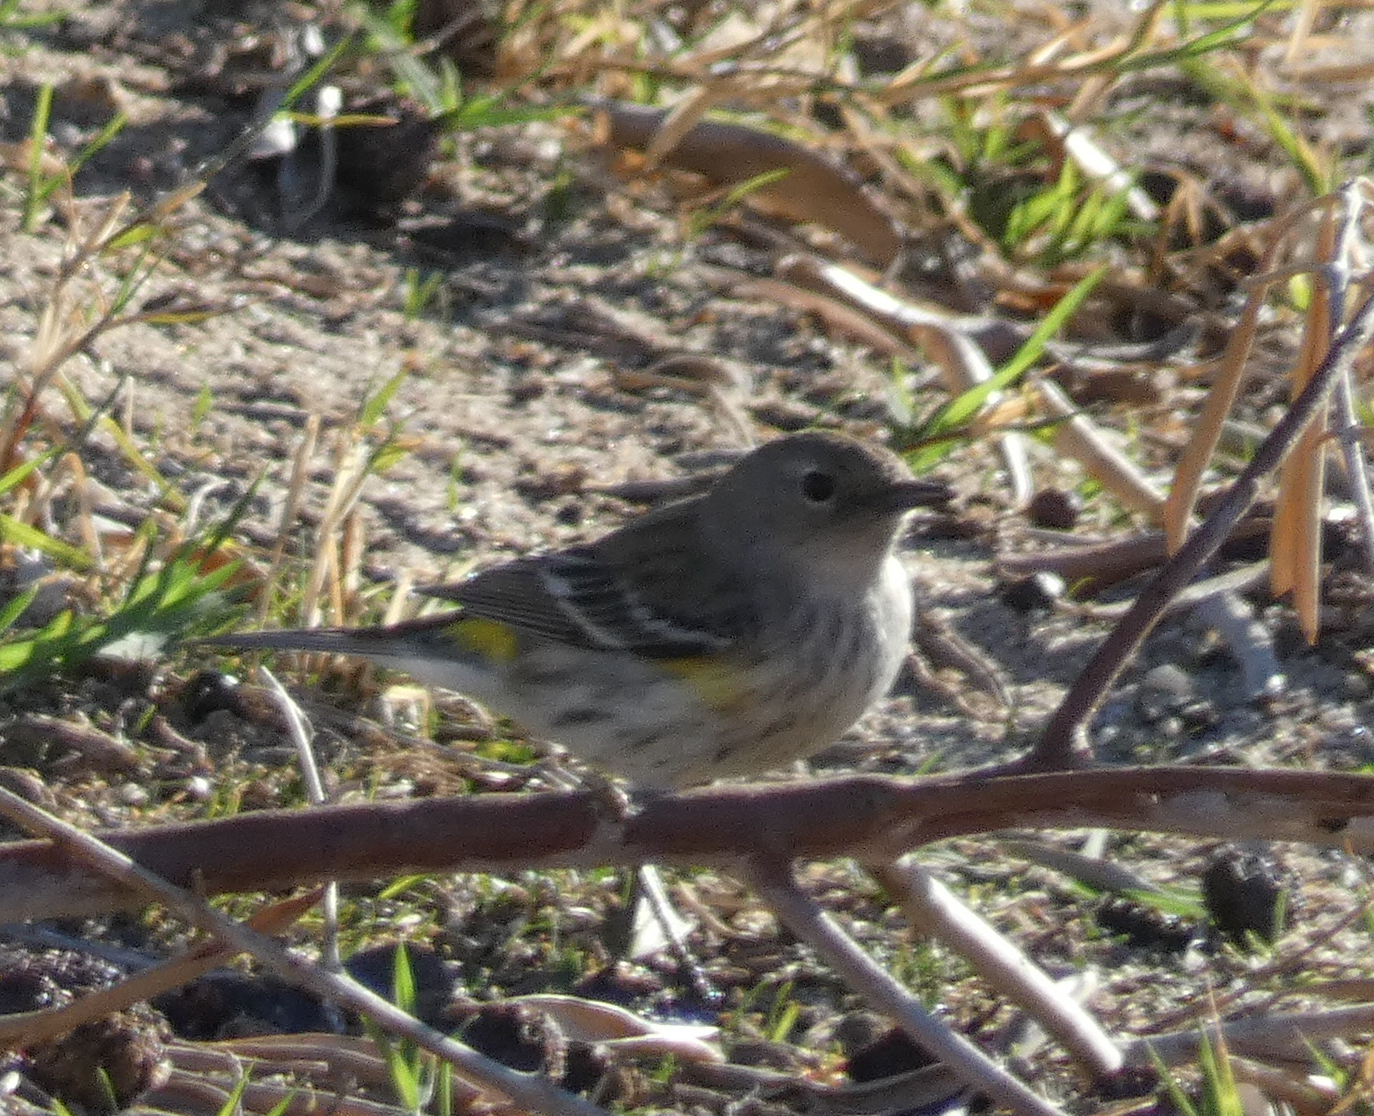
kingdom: Animalia
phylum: Chordata
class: Aves
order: Passeriformes
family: Parulidae
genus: Setophaga
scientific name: Setophaga coronata
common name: Myrtle warbler
